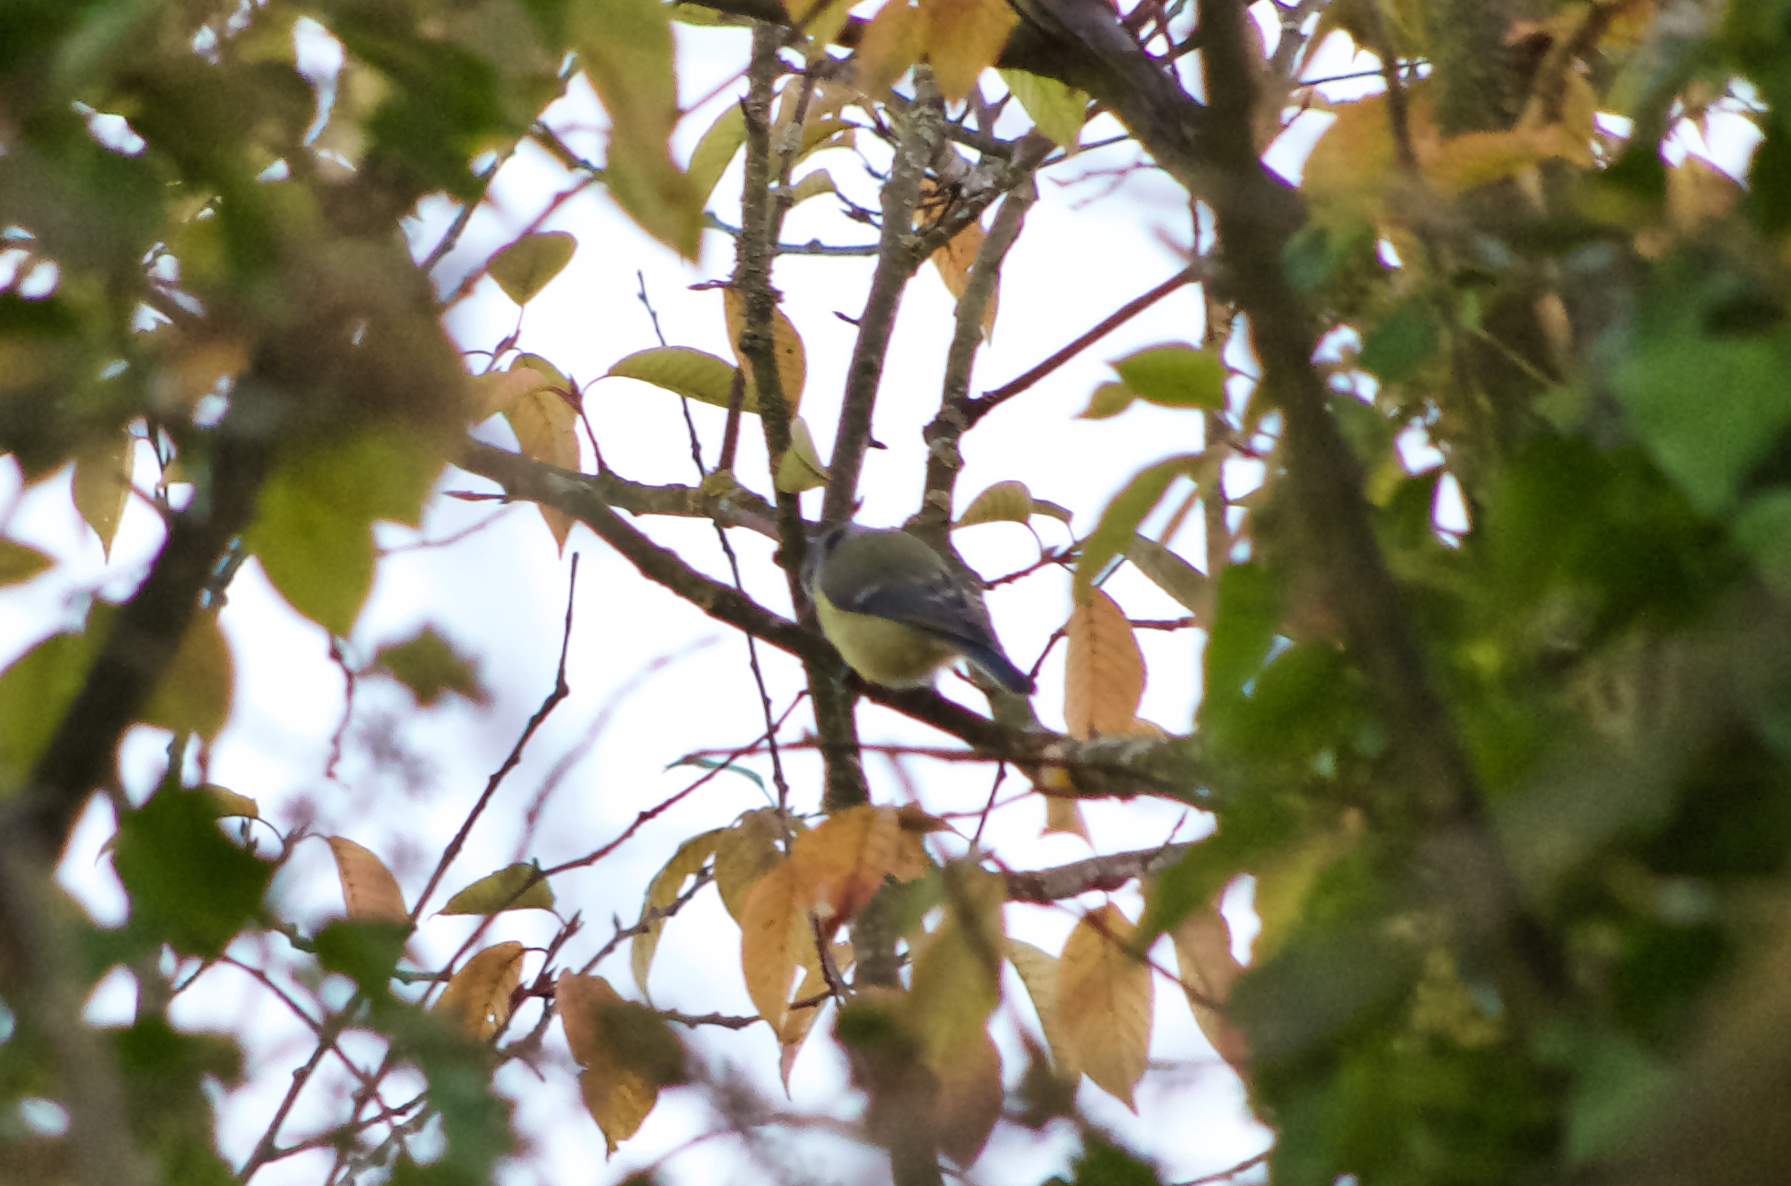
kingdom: Animalia
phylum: Chordata
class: Aves
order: Passeriformes
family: Paridae
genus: Cyanistes
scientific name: Cyanistes caeruleus
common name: Eurasian blue tit
